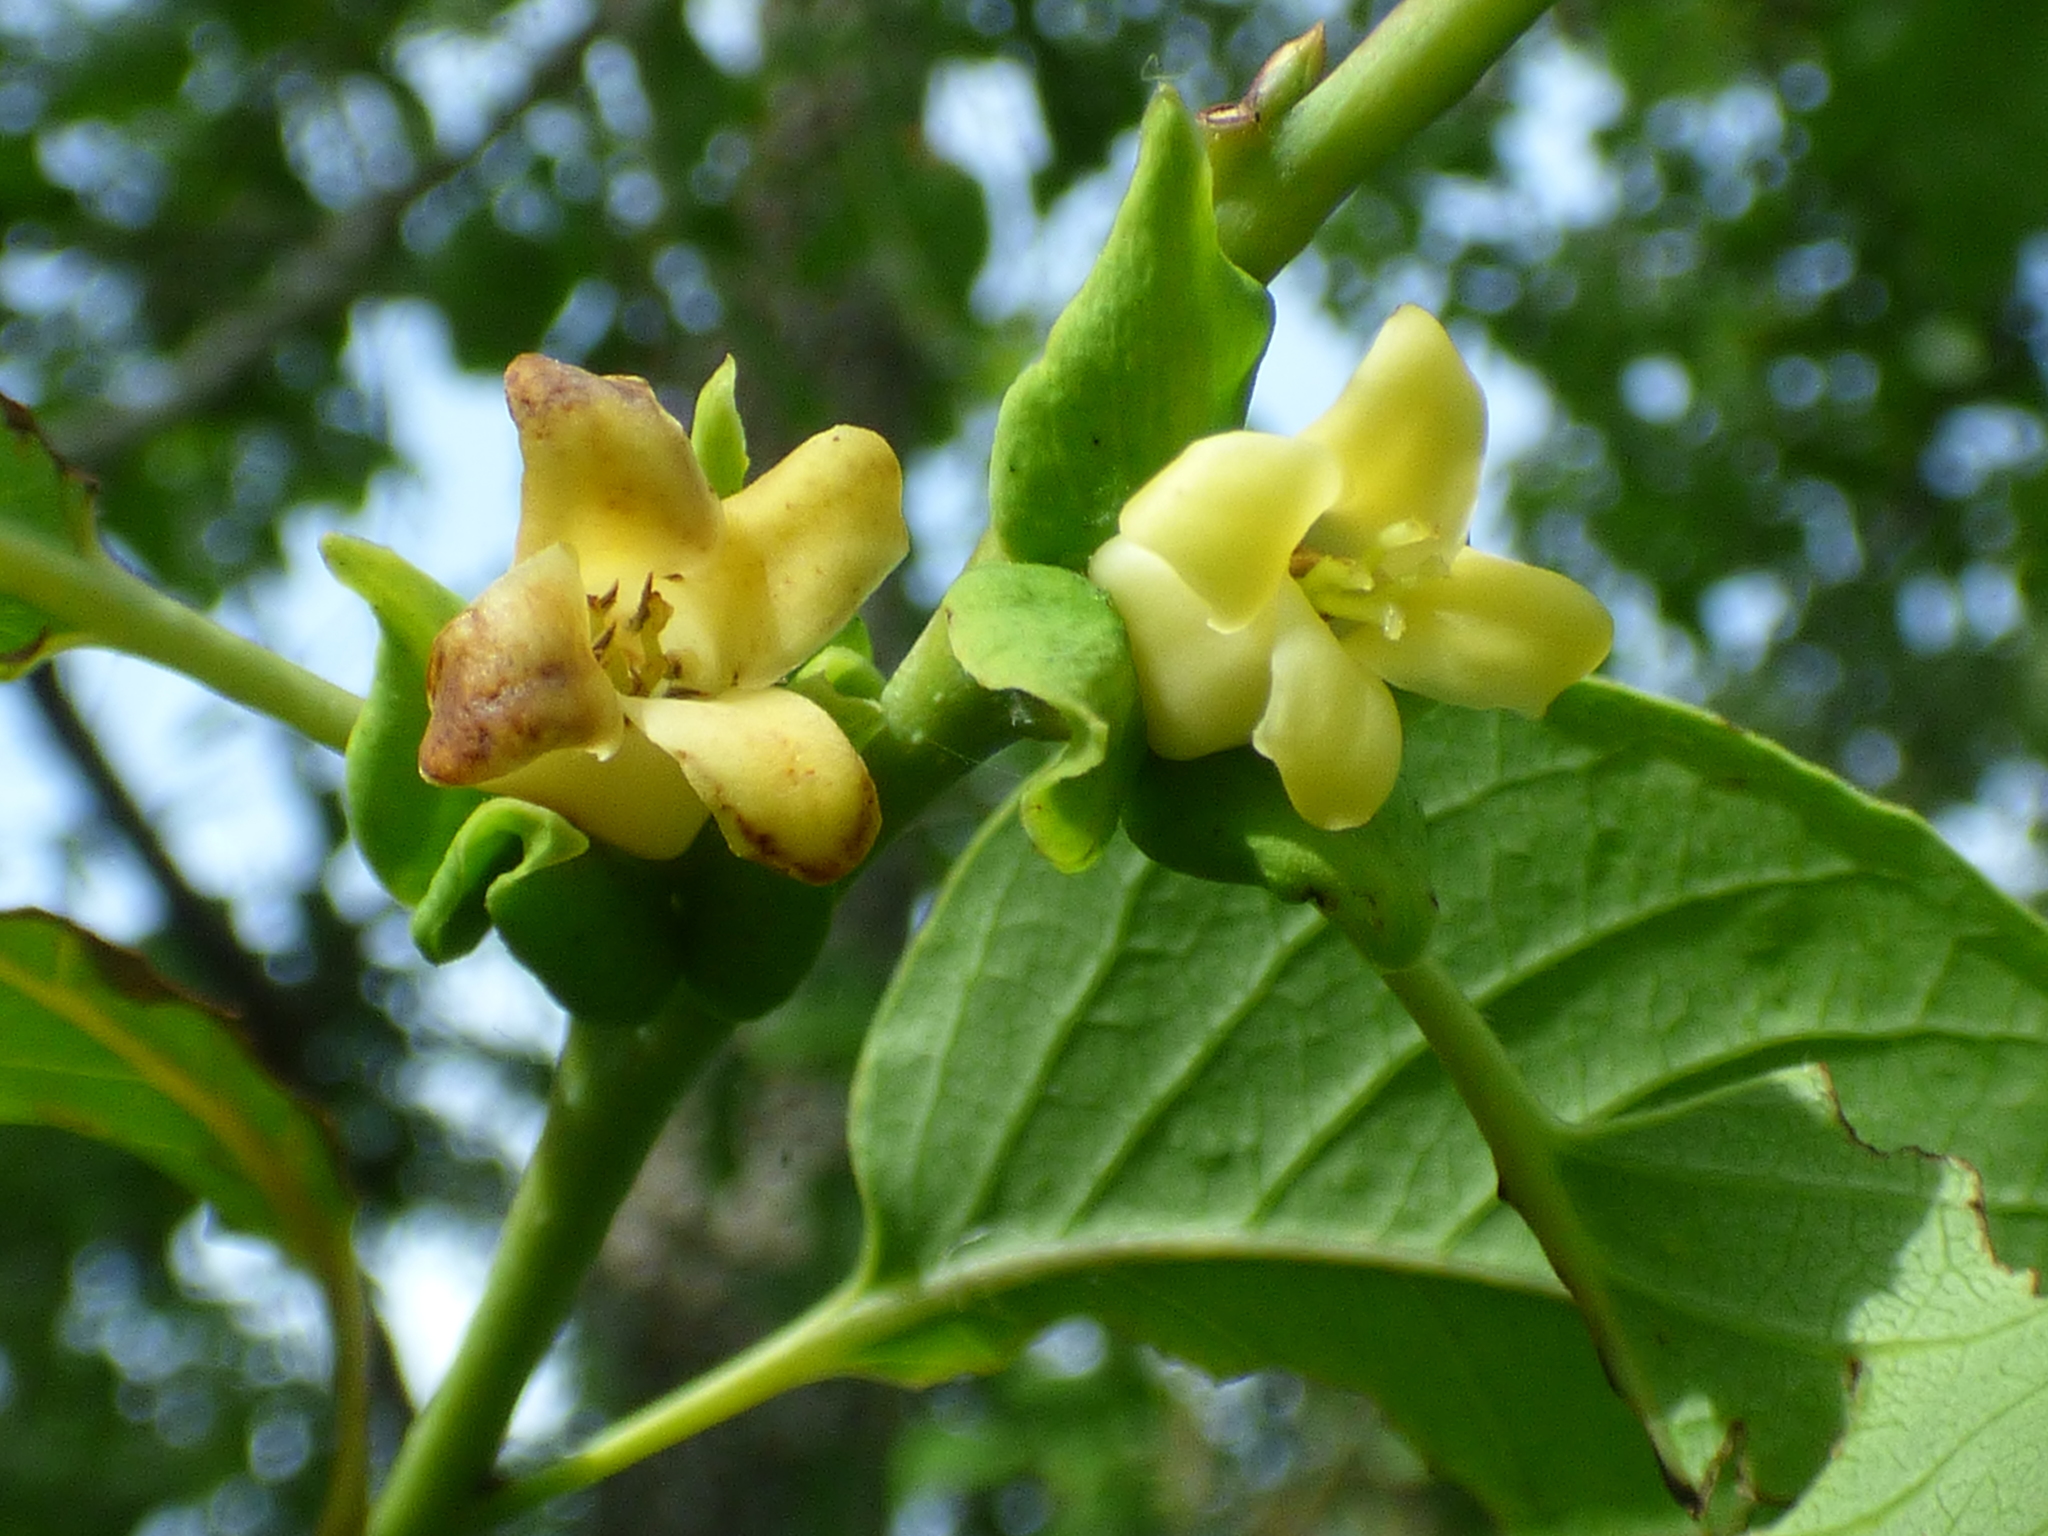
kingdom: Plantae
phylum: Tracheophyta
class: Magnoliopsida
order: Ericales
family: Ebenaceae
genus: Diospyros
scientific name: Diospyros virginiana
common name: Persimmon
